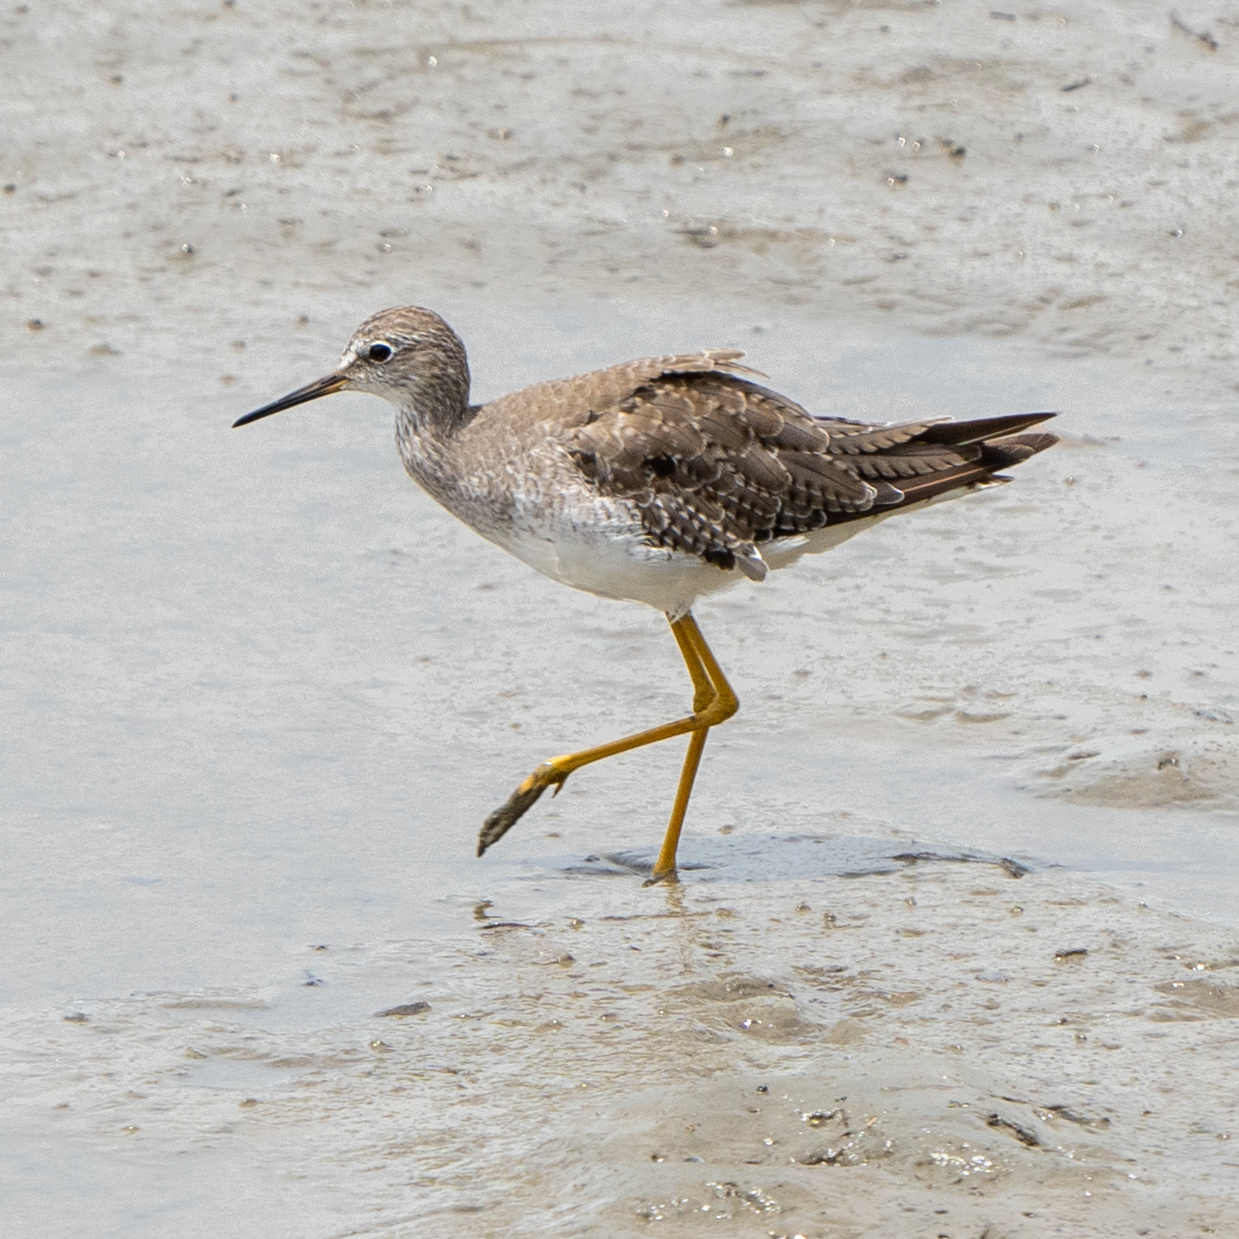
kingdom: Animalia
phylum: Chordata
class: Aves
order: Charadriiformes
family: Scolopacidae
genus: Tringa
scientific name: Tringa flavipes
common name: Lesser yellowlegs
